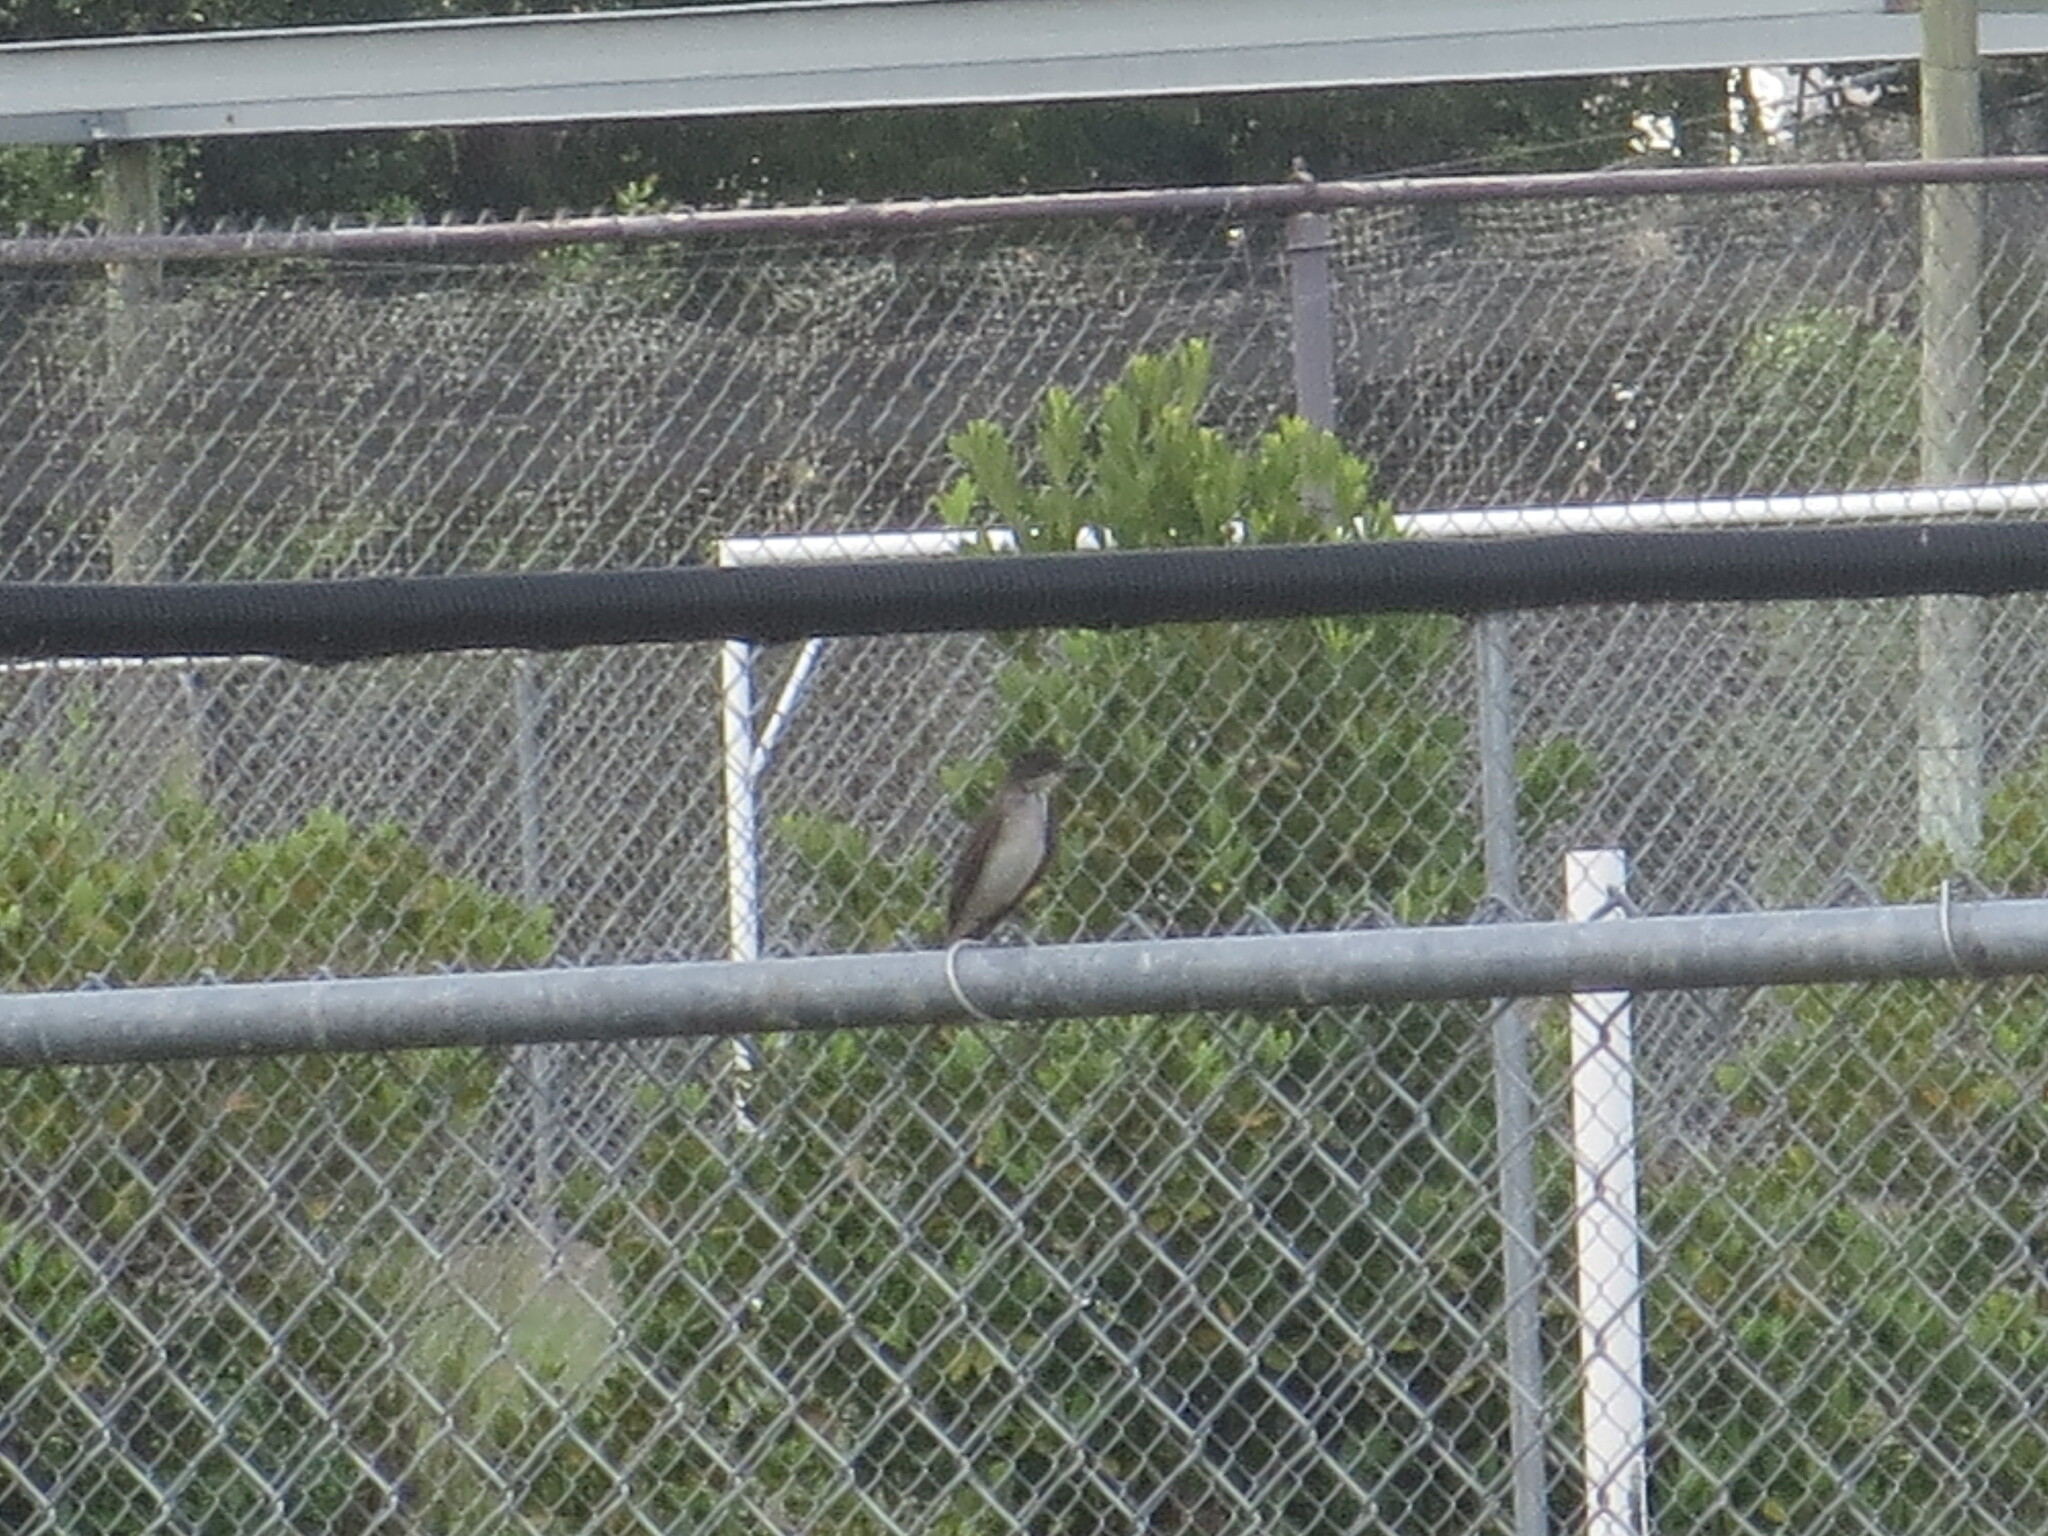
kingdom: Animalia
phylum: Chordata
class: Aves
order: Passeriformes
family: Tyrannidae
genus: Sayornis
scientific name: Sayornis phoebe
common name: Eastern phoebe
